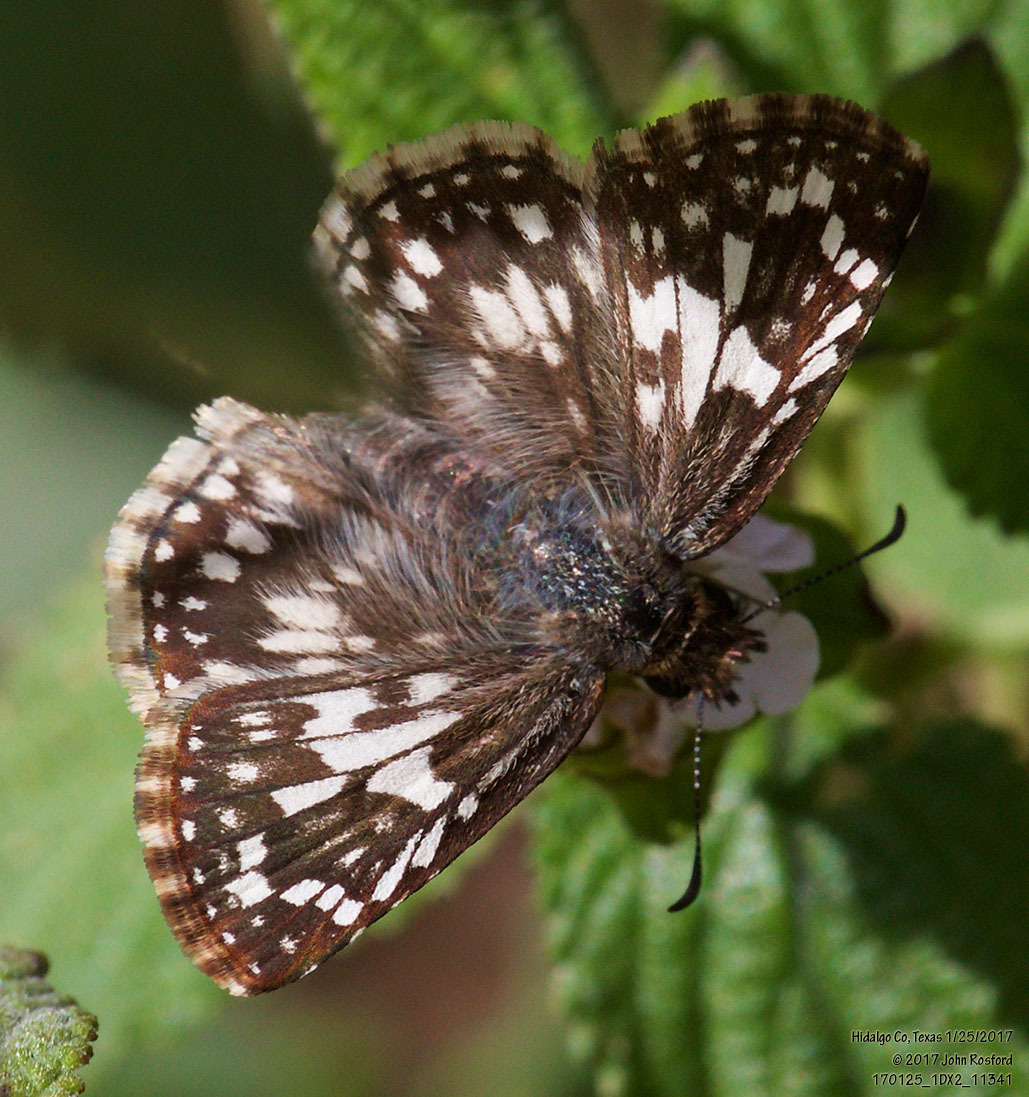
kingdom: Animalia
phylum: Arthropoda
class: Insecta
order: Lepidoptera
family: Hesperiidae
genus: Pyrgus
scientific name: Pyrgus oileus
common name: Tropical checkered-skipper
